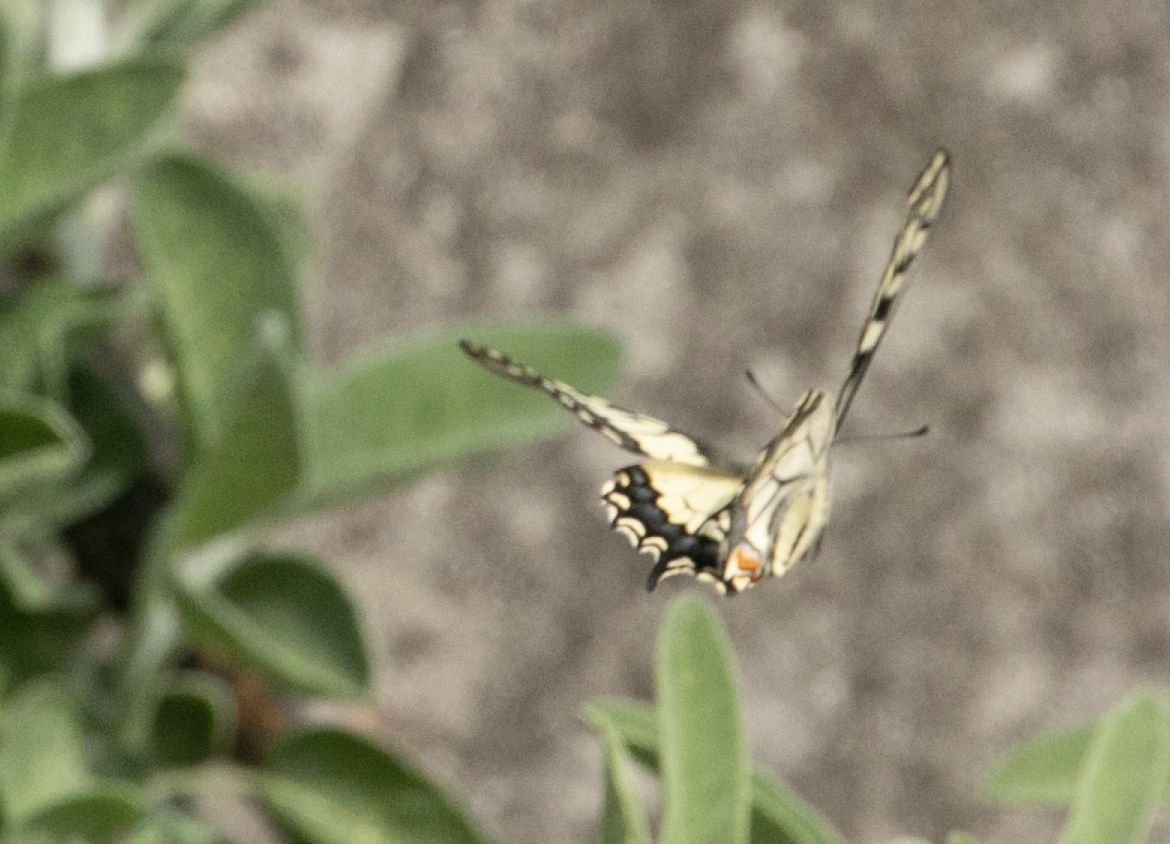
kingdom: Animalia
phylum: Arthropoda
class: Insecta
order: Lepidoptera
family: Papilionidae
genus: Papilio
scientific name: Papilio machaon
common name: Swallowtail
